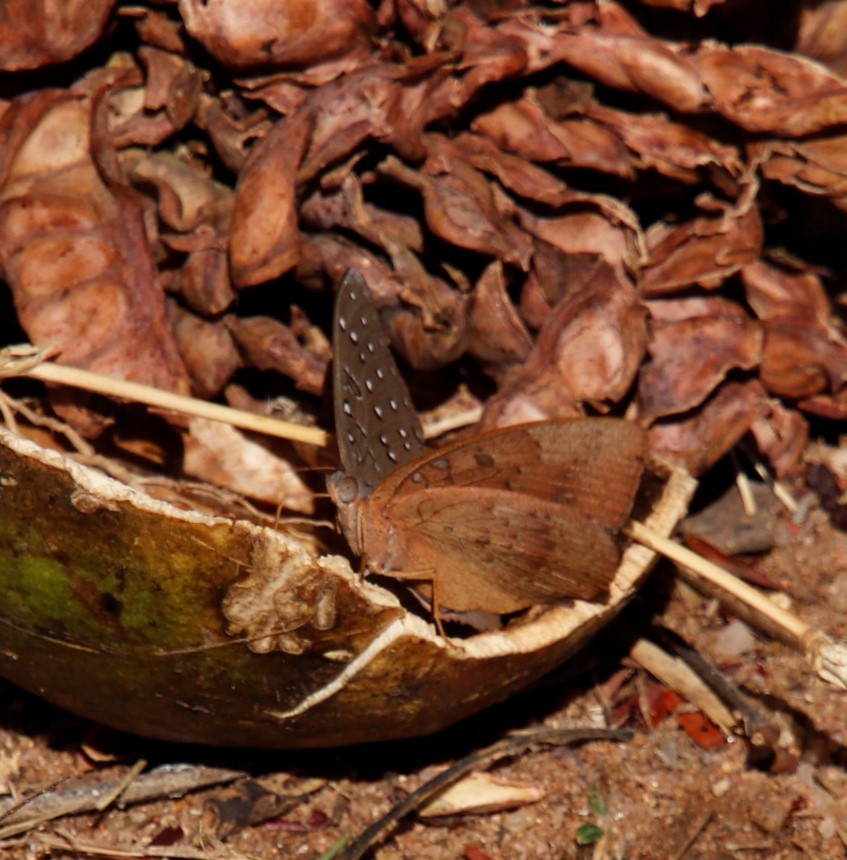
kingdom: Animalia
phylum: Arthropoda
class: Insecta
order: Lepidoptera
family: Nymphalidae
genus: Hamanumida
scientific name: Hamanumida daedalus
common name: Guinea-fowl butterfly
